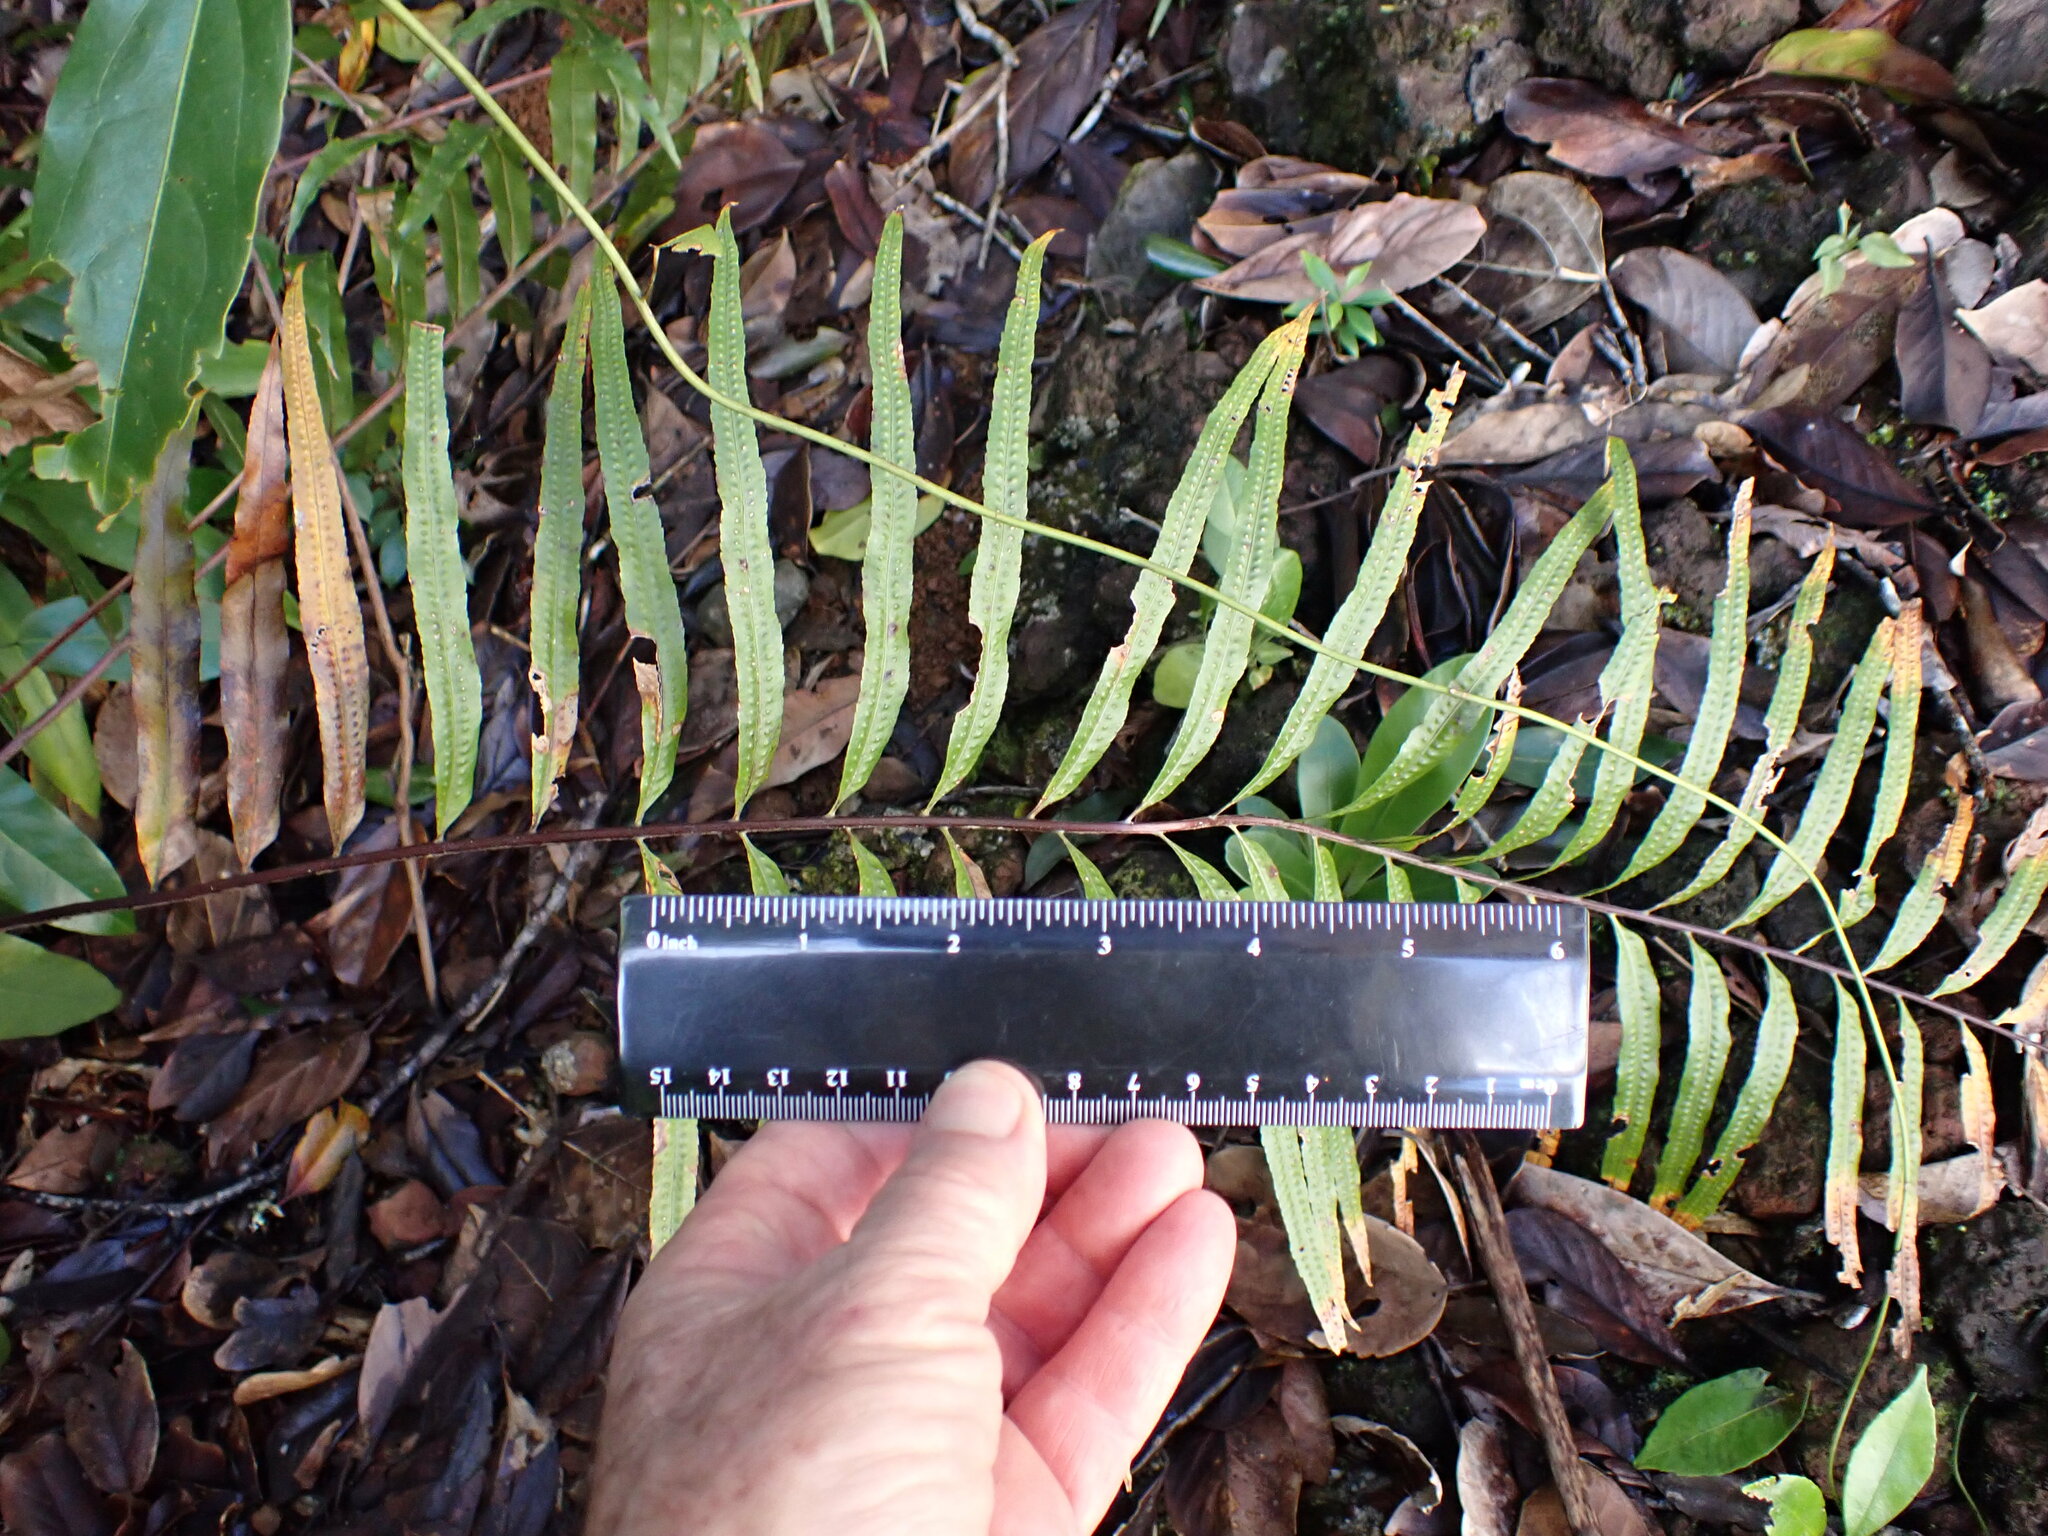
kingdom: Plantae
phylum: Tracheophyta
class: Polypodiopsida
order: Polypodiales
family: Polypodiaceae
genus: Drynaria
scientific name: Drynaria rigidula
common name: Basket fern
